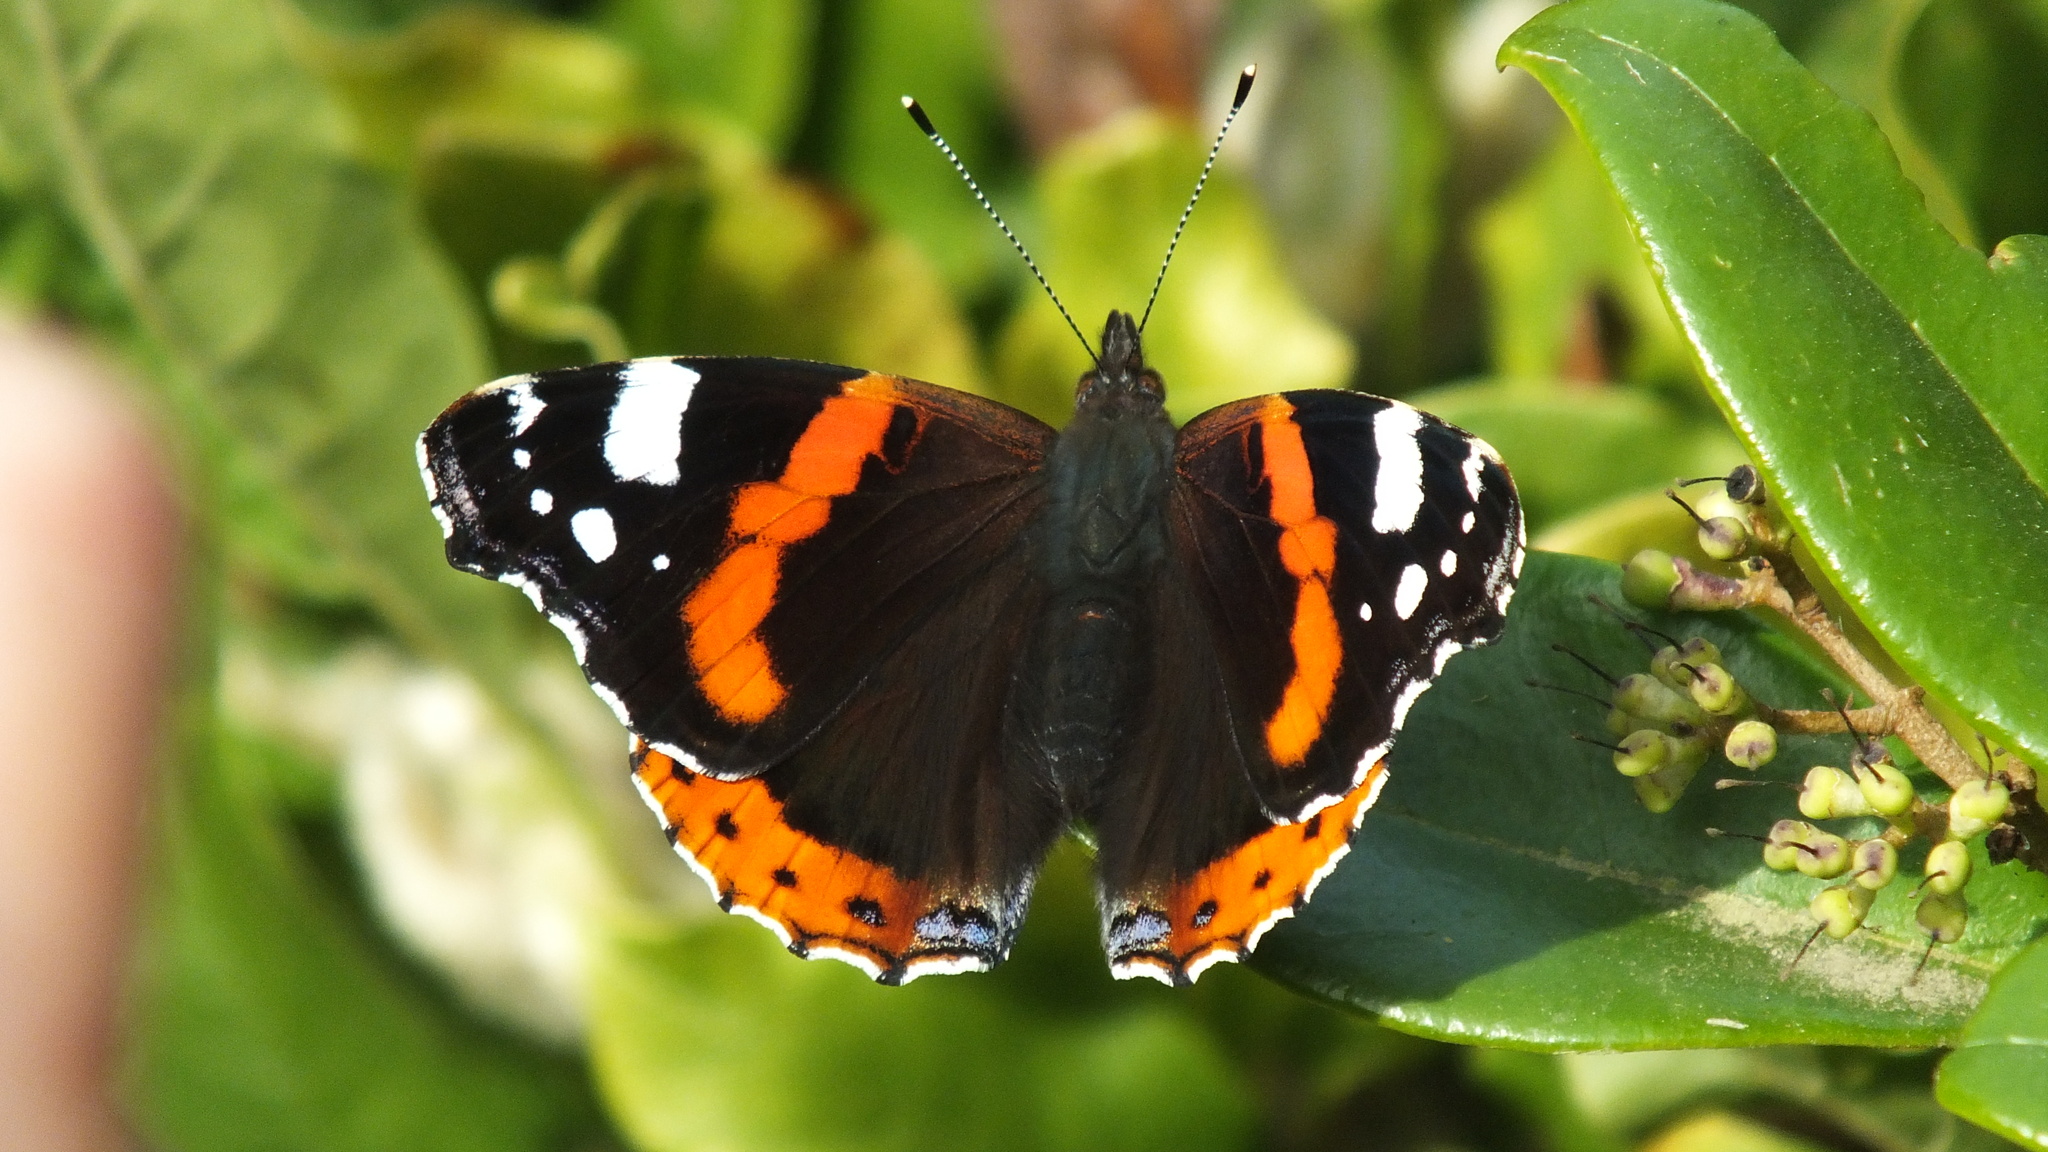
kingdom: Animalia
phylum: Arthropoda
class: Insecta
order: Lepidoptera
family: Nymphalidae
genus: Vanessa
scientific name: Vanessa atalanta
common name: Red admiral
